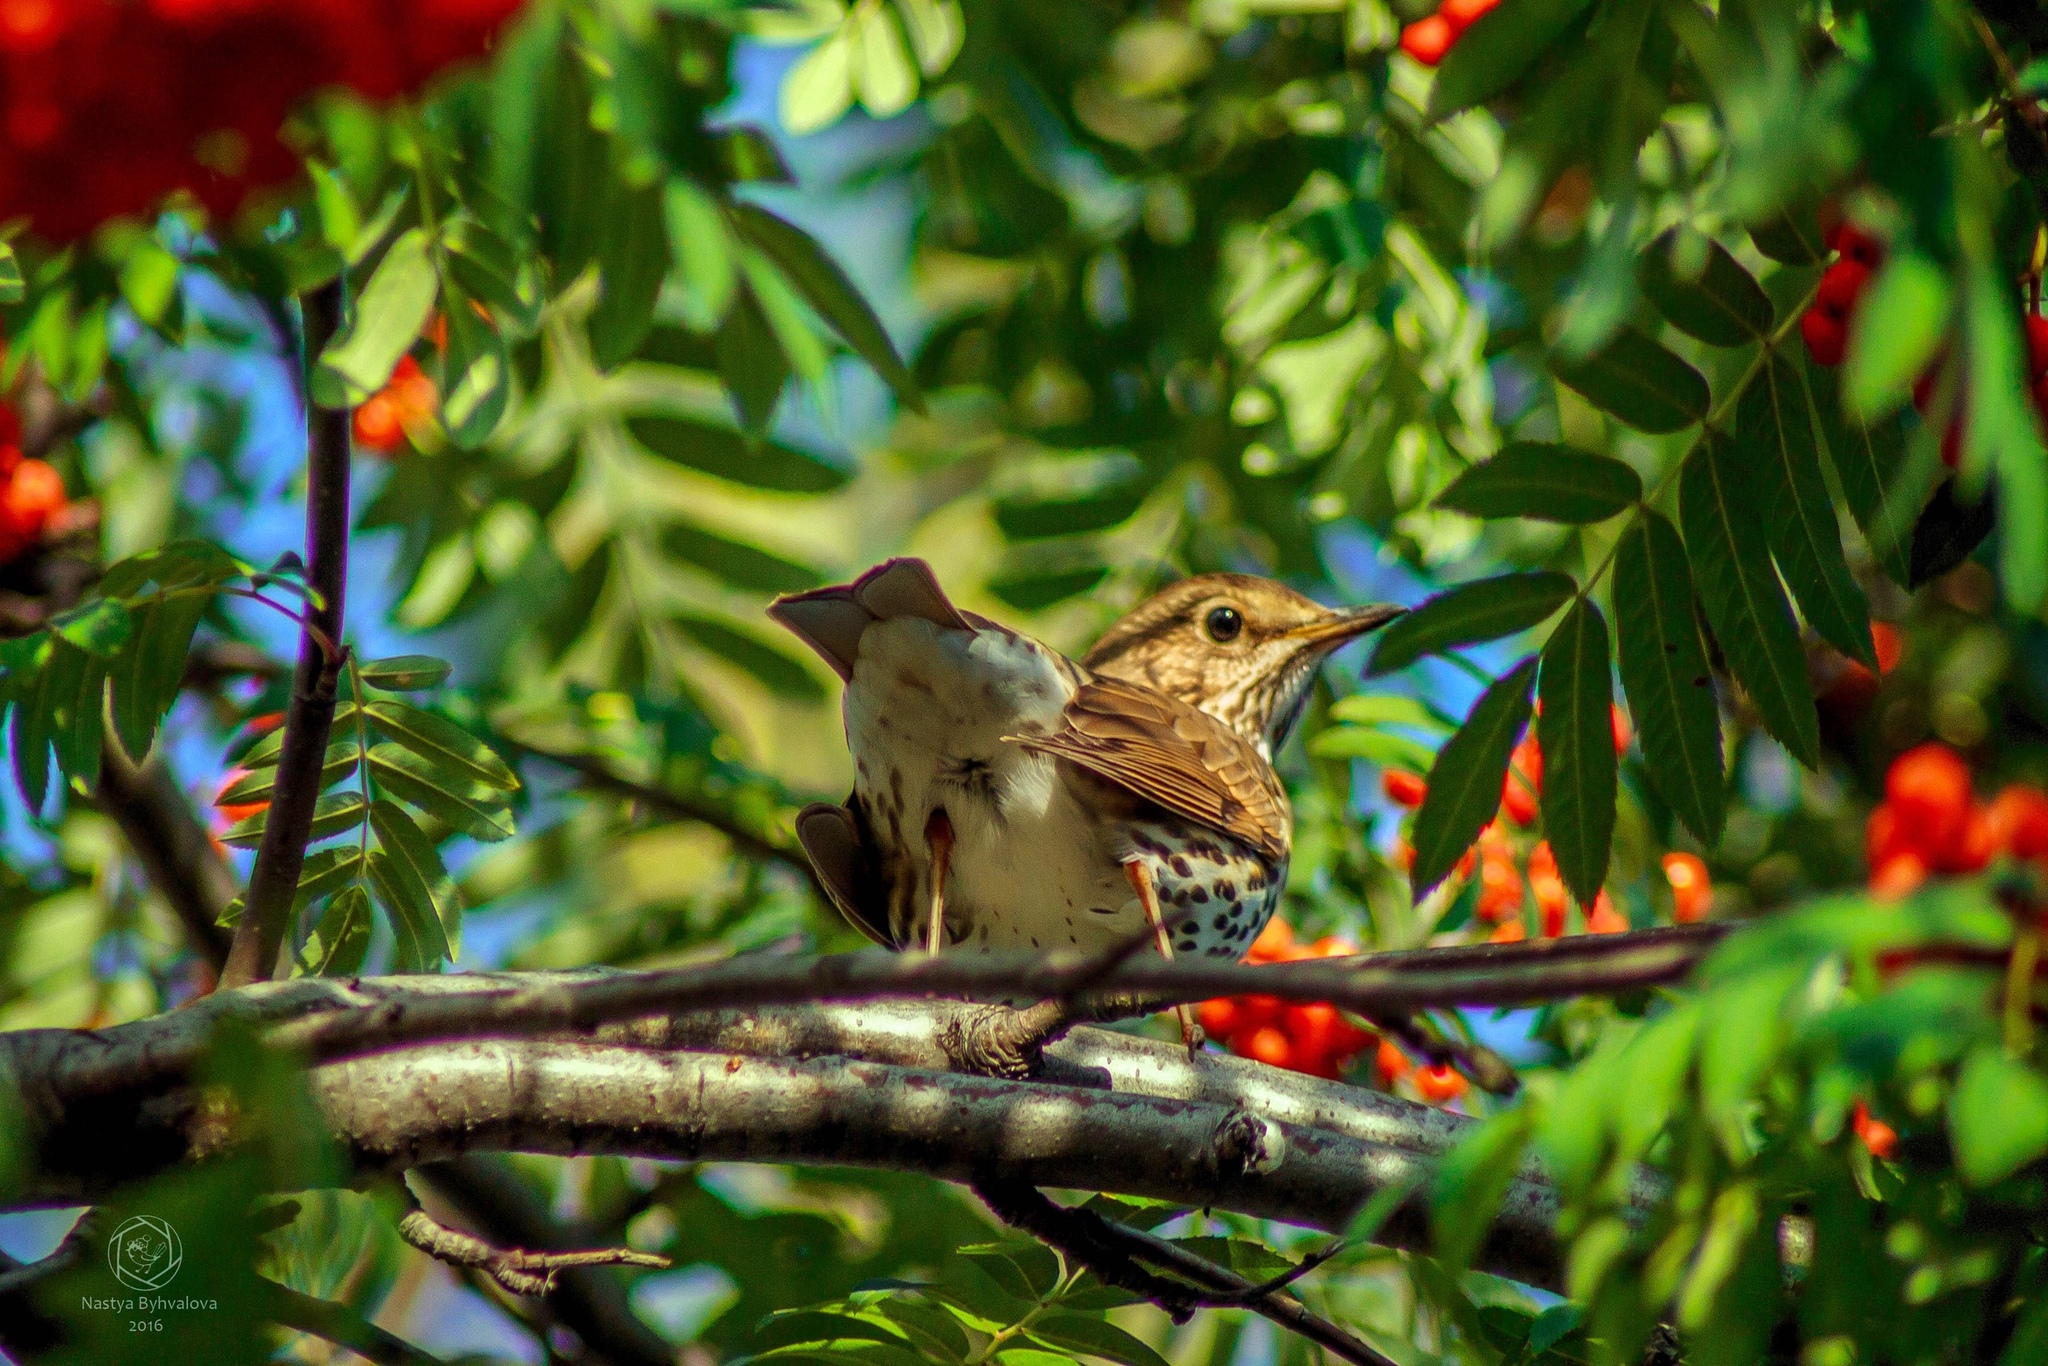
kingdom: Animalia
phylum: Chordata
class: Aves
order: Passeriformes
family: Turdidae
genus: Turdus
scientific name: Turdus philomelos
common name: Song thrush
